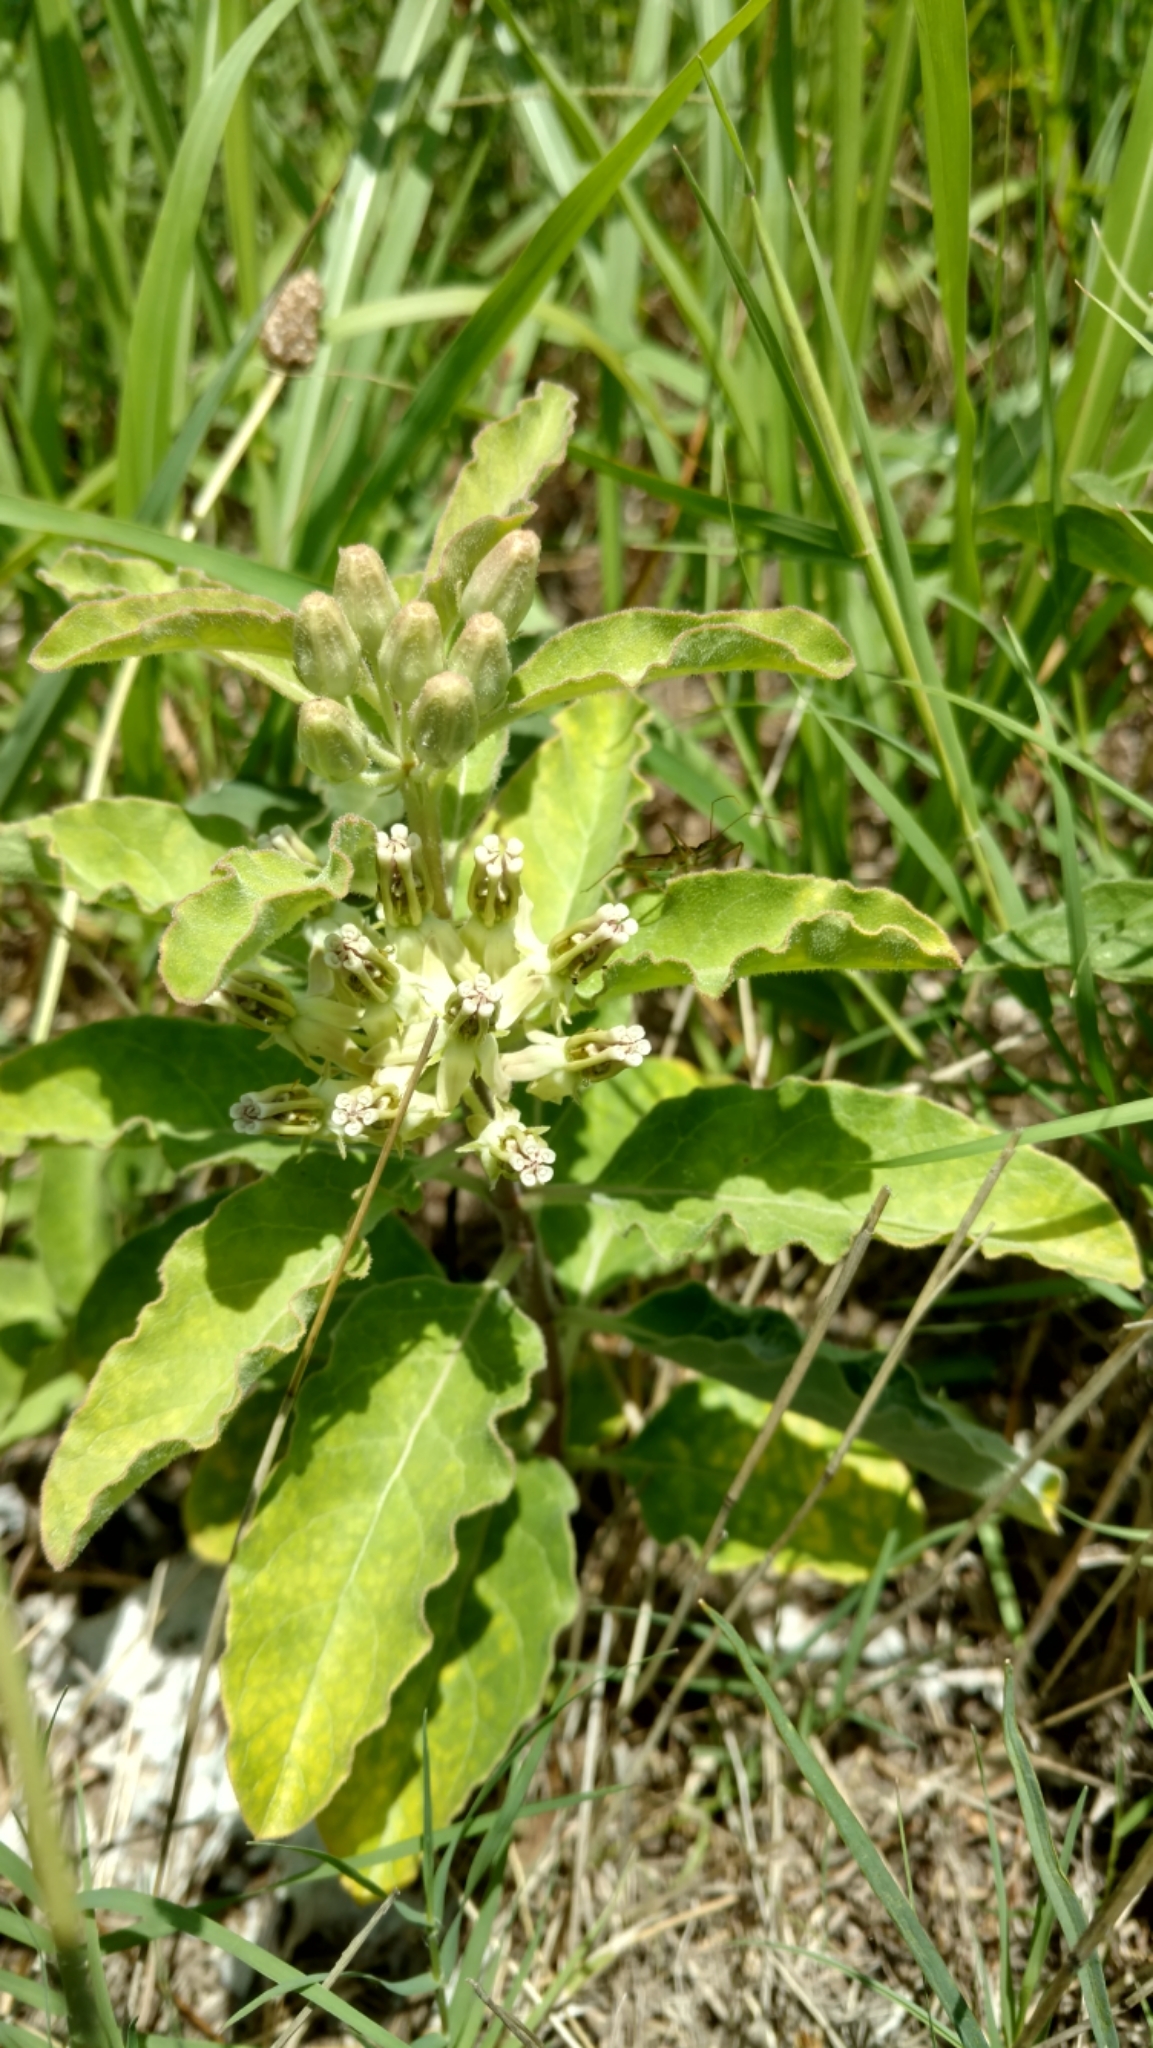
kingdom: Plantae
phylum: Tracheophyta
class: Magnoliopsida
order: Gentianales
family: Apocynaceae
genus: Asclepias
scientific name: Asclepias oenotheroides
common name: Zizotes milkweed
